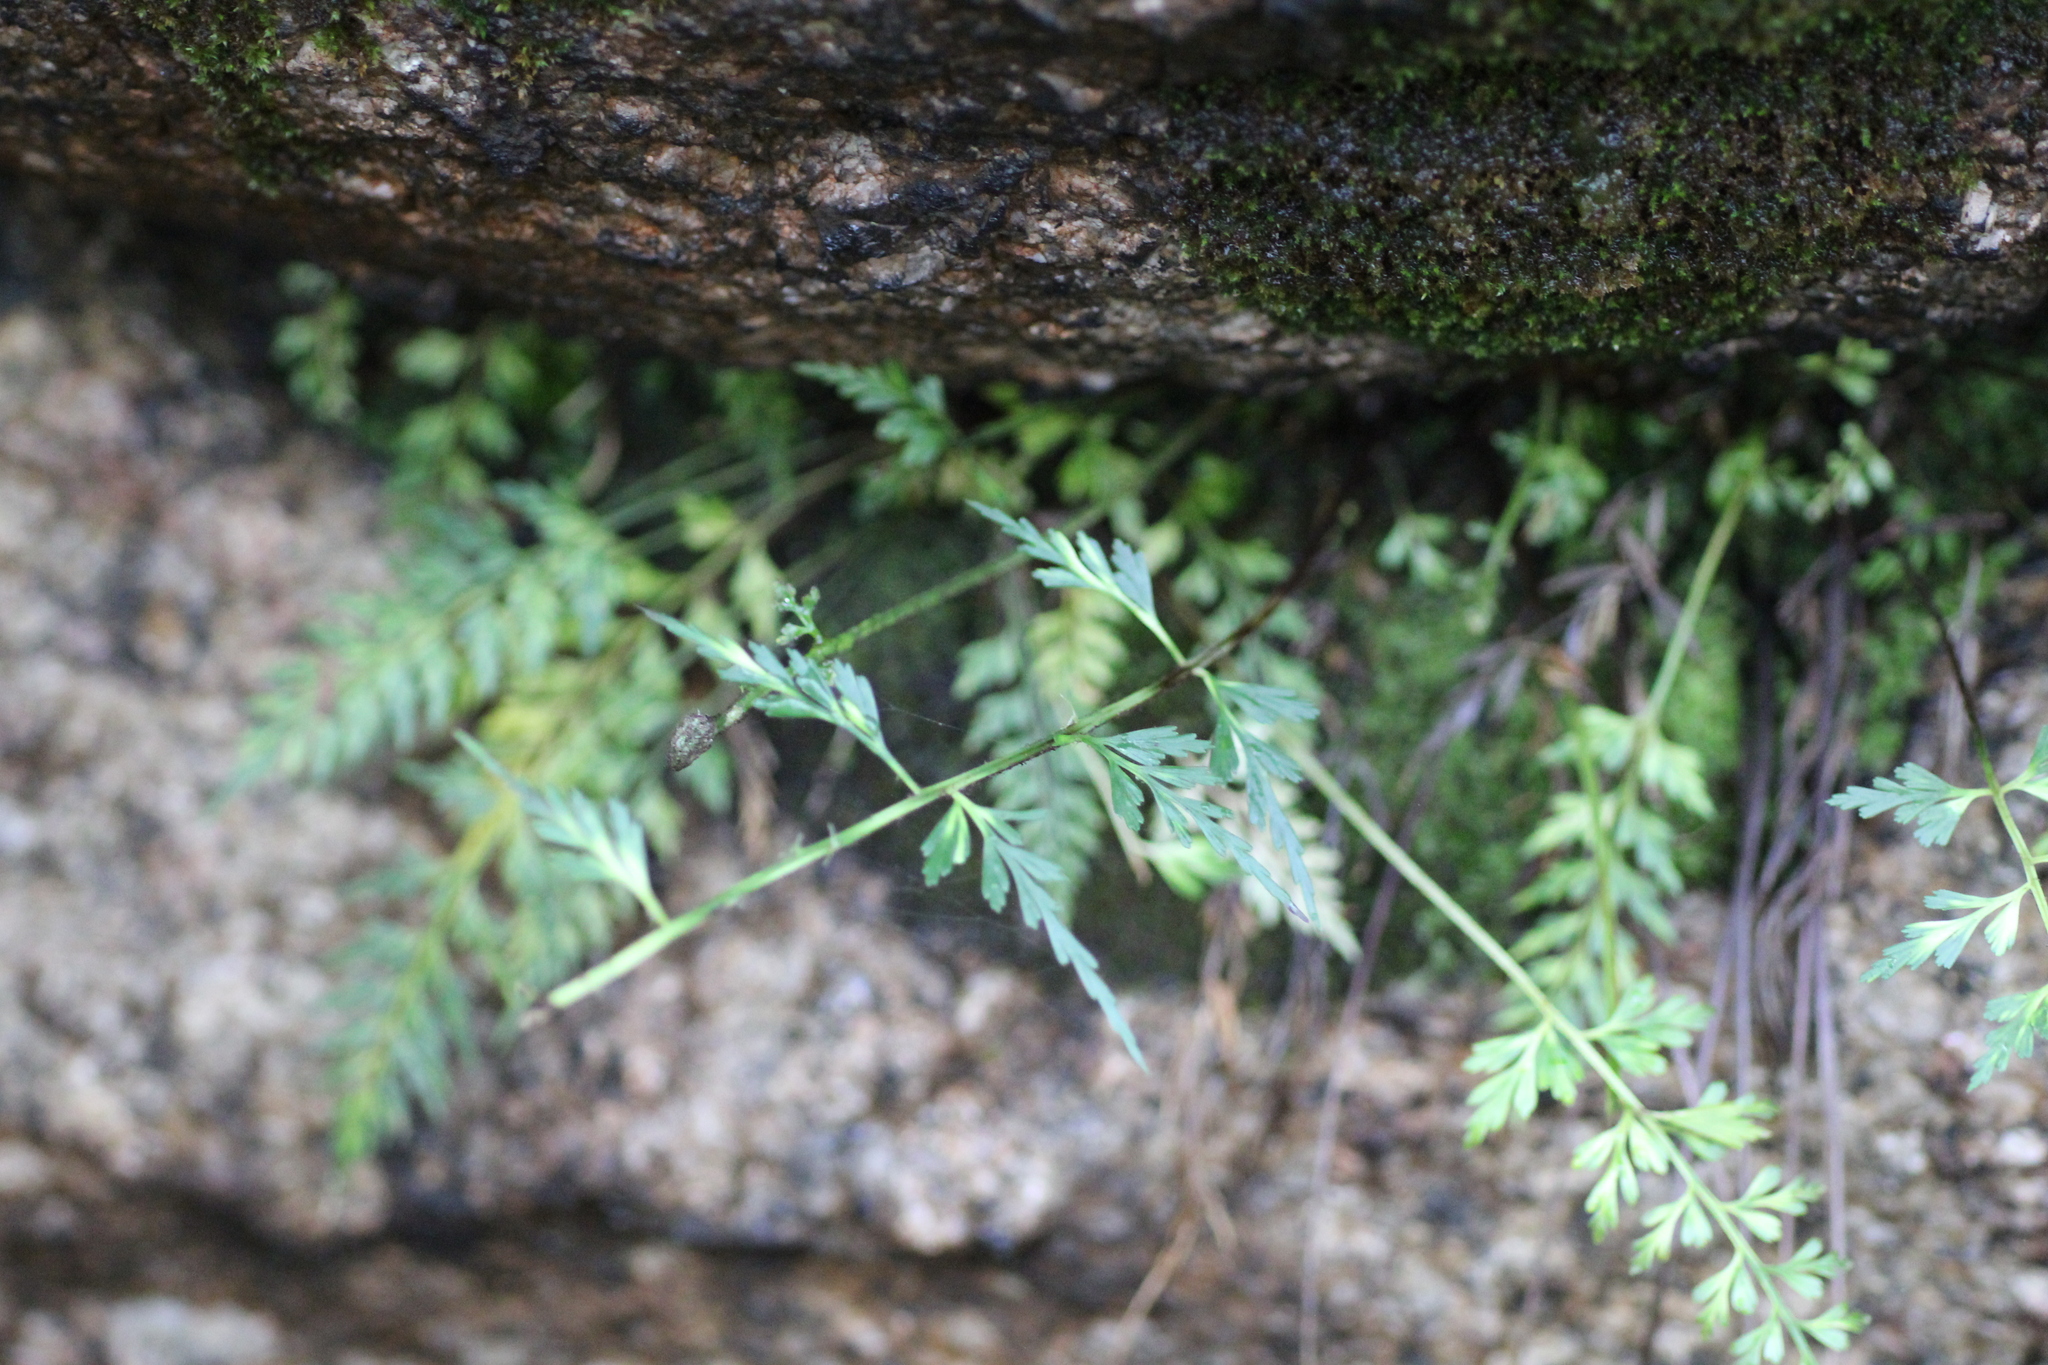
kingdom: Plantae
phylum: Tracheophyta
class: Polypodiopsida
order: Polypodiales
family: Aspleniaceae
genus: Asplenium
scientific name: Asplenium aethiopicum
